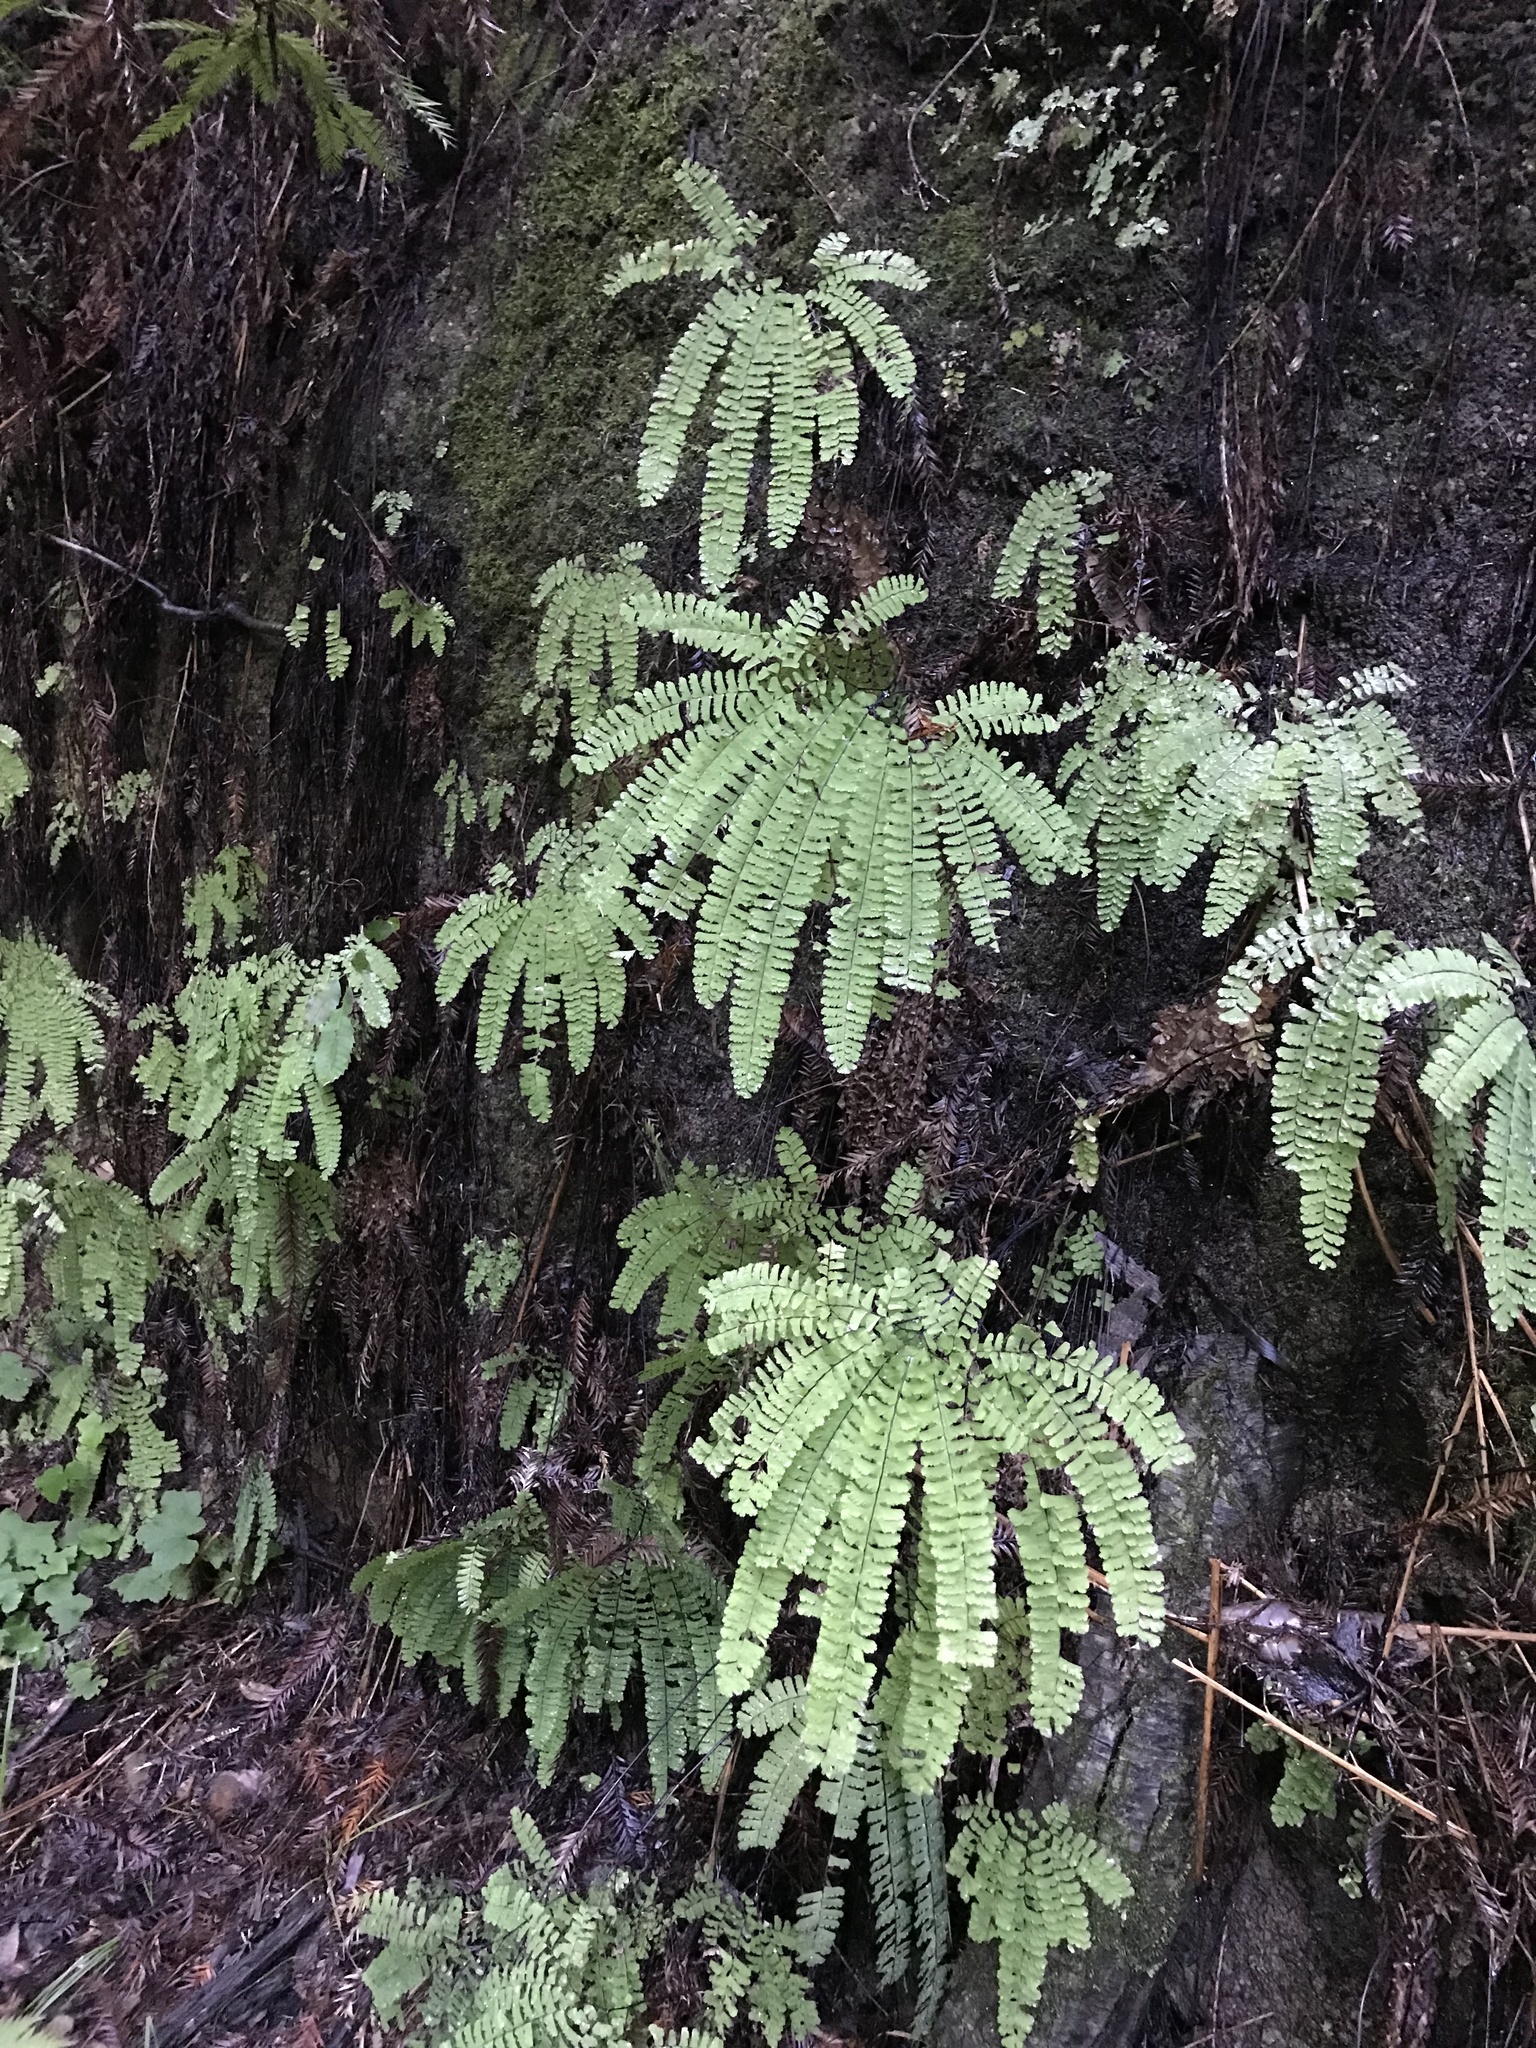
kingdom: Plantae
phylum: Tracheophyta
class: Polypodiopsida
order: Polypodiales
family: Pteridaceae
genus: Adiantum
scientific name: Adiantum aleuticum
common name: Aleutian maidenhair fern
